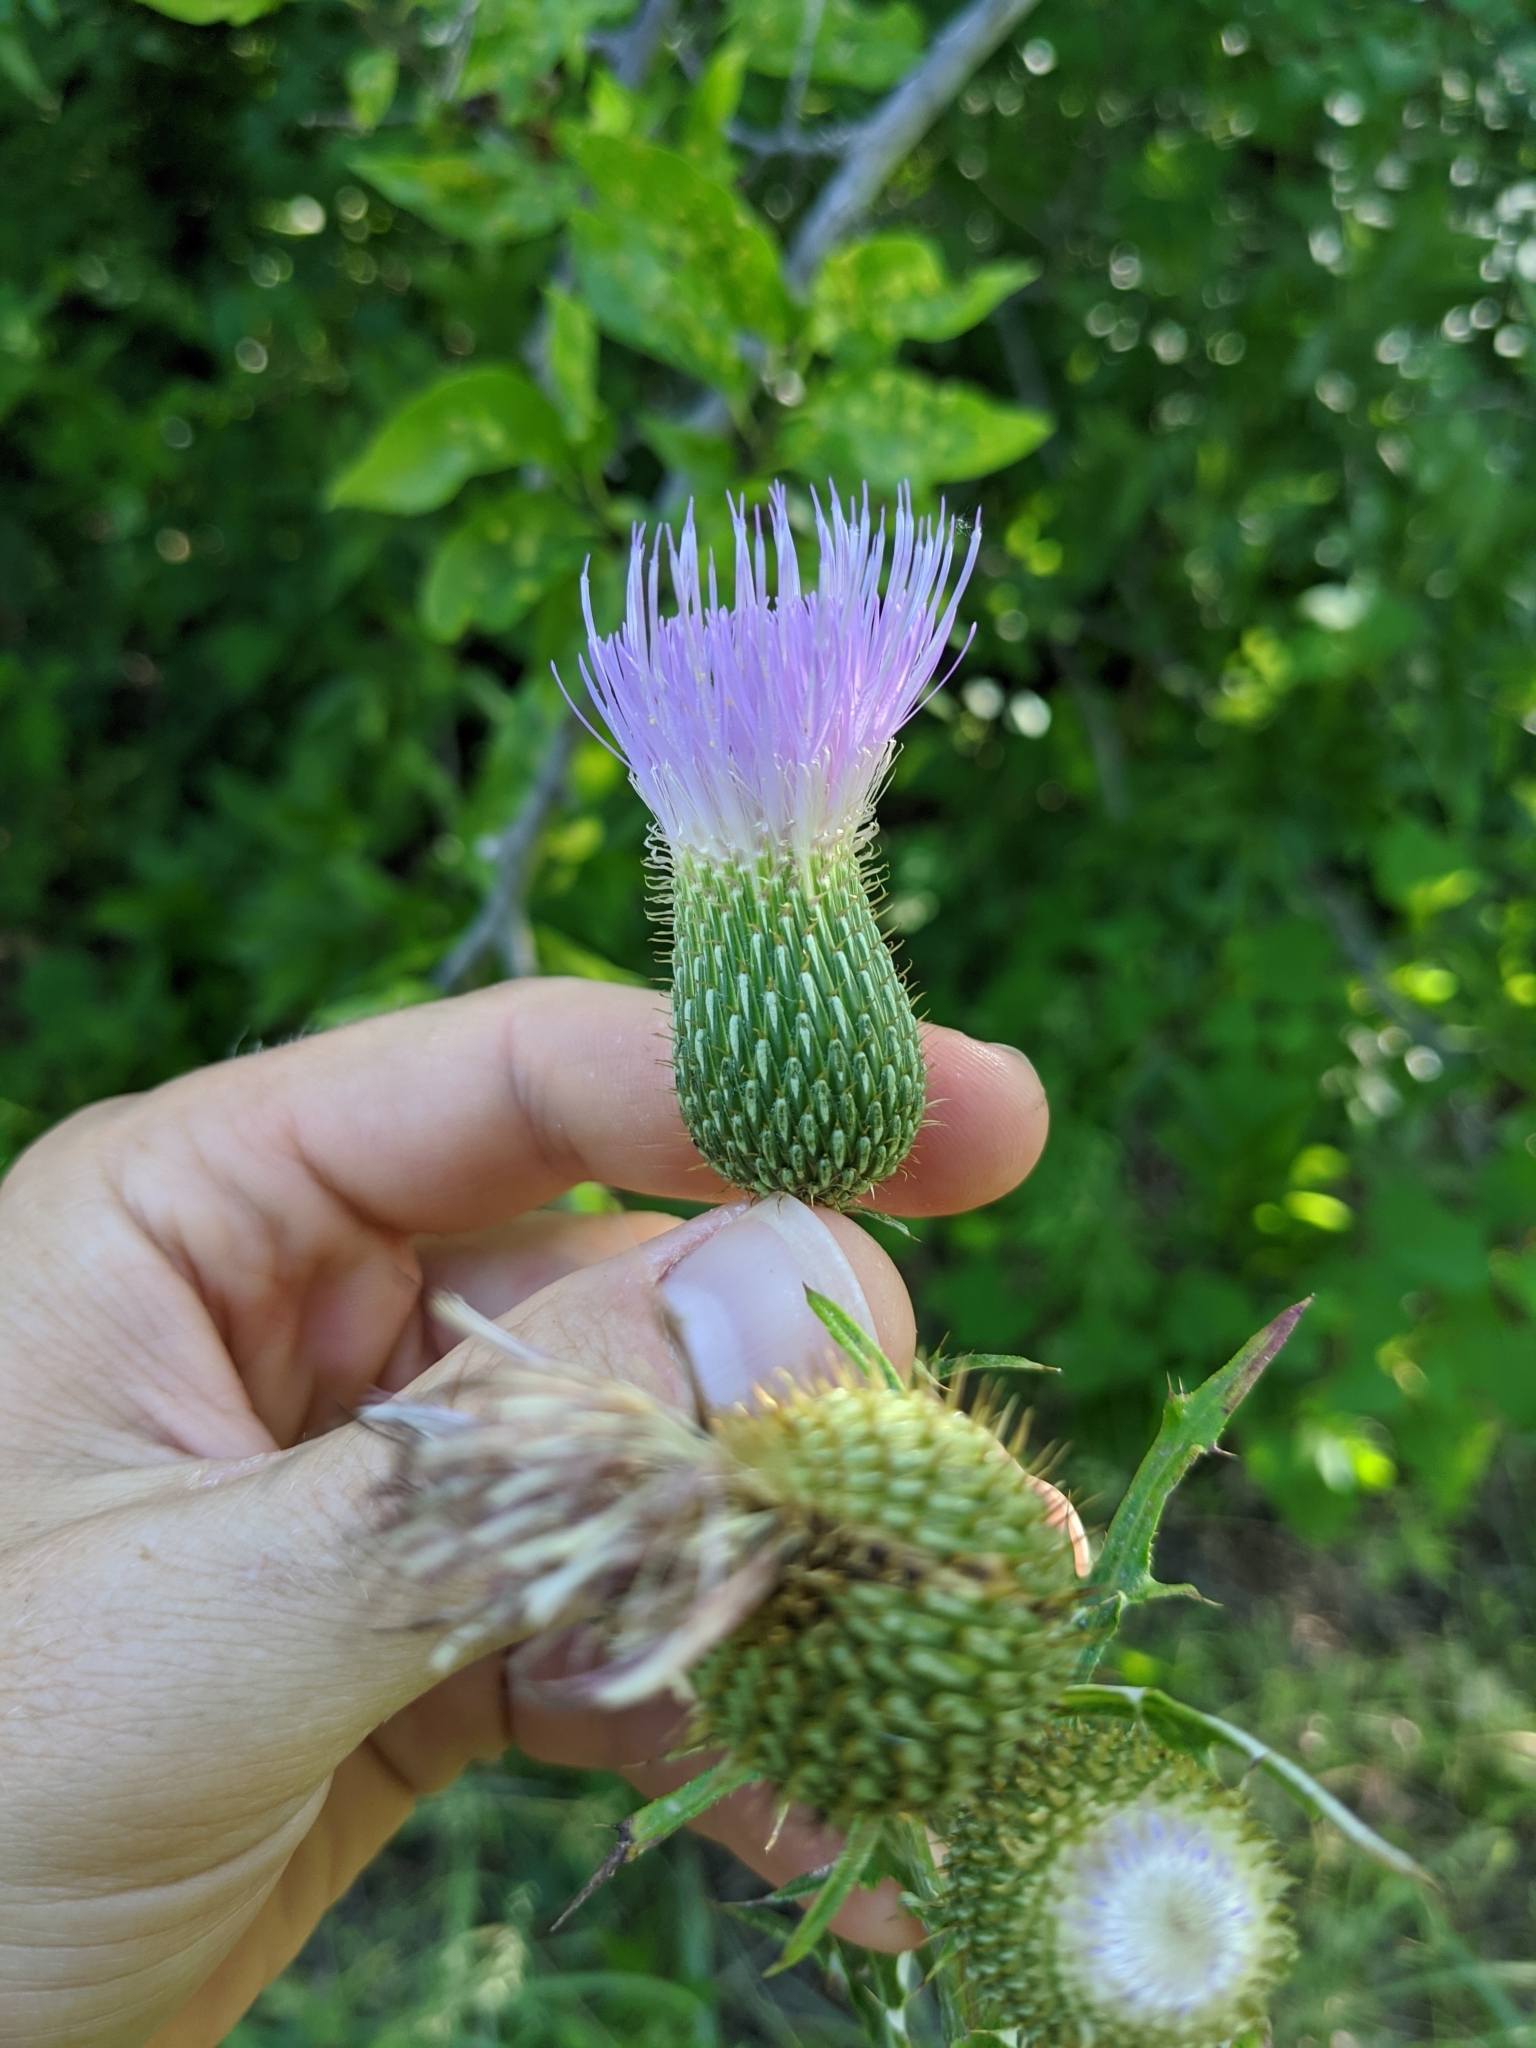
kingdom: Plantae
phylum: Tracheophyta
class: Magnoliopsida
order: Asterales
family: Asteraceae
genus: Cirsium
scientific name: Cirsium engelmannii
